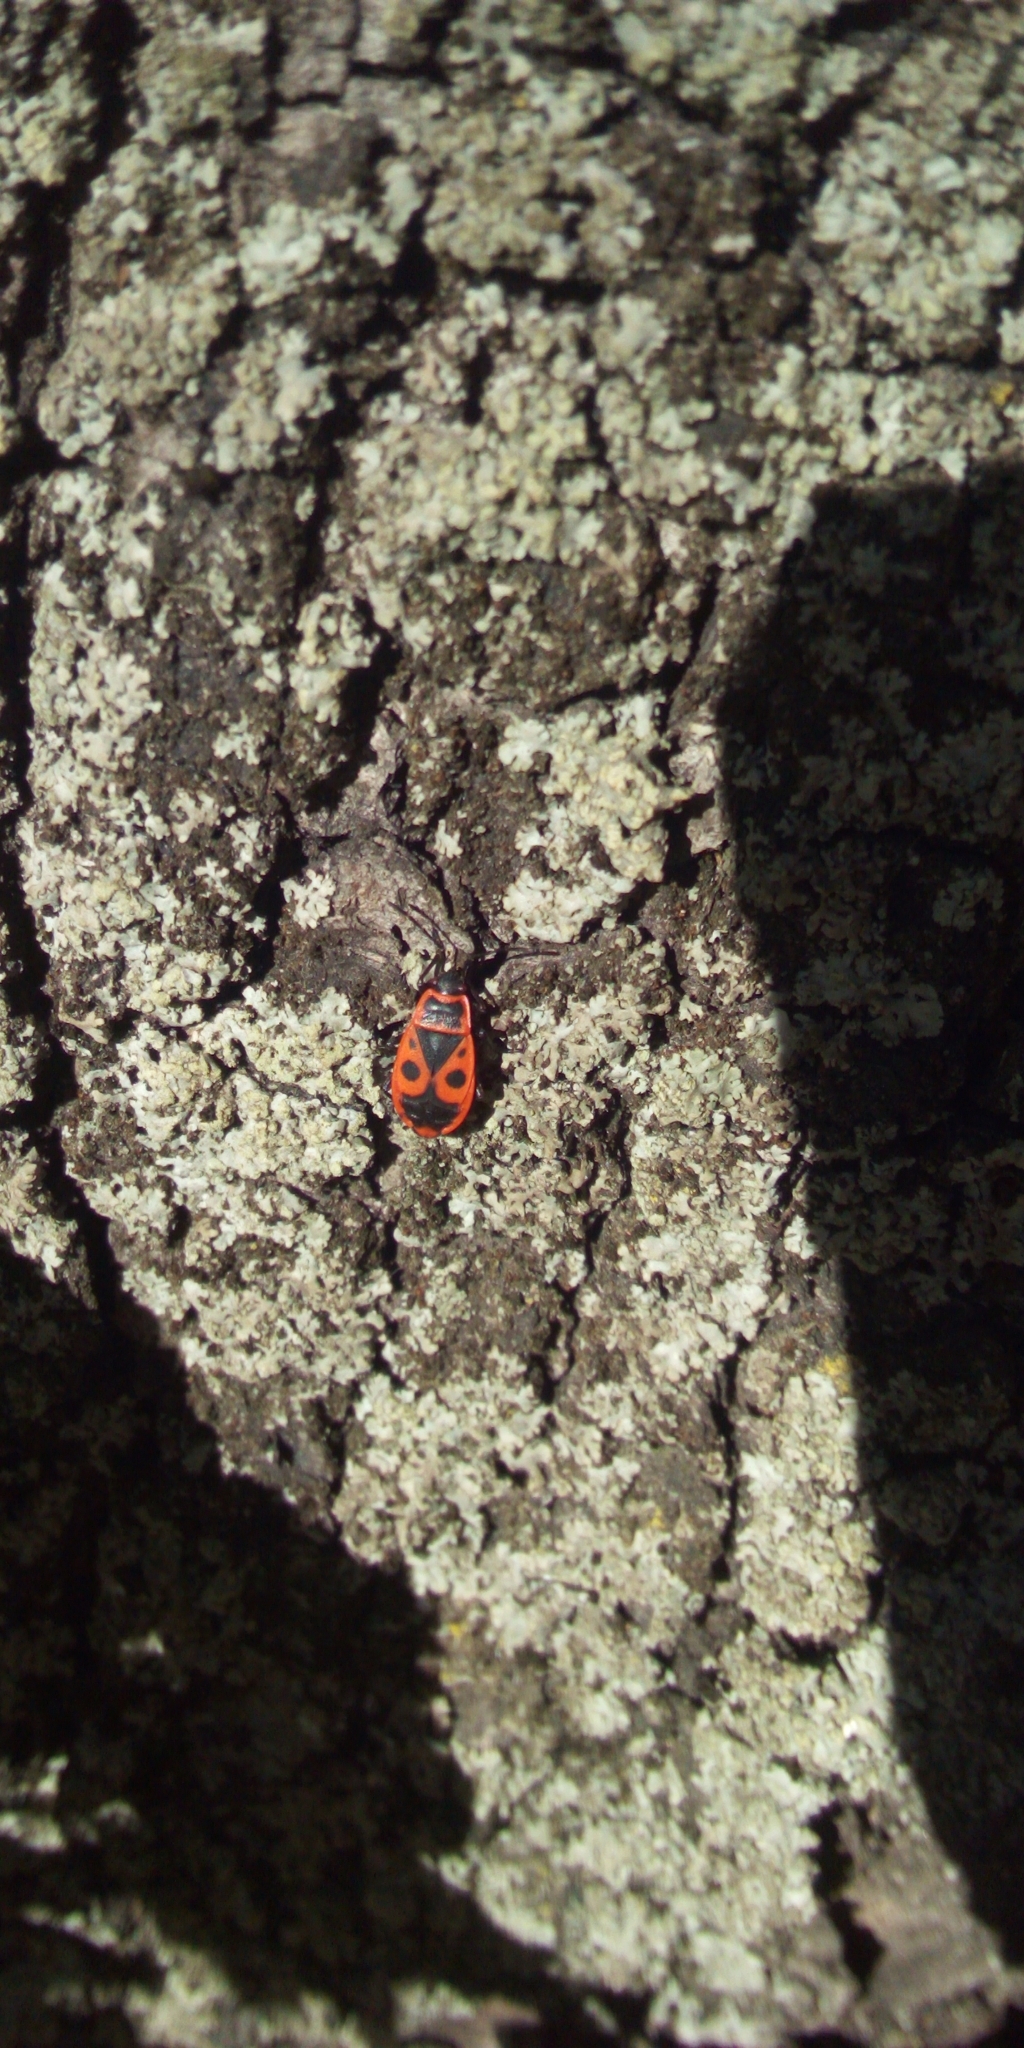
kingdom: Animalia
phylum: Arthropoda
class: Insecta
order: Hemiptera
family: Pyrrhocoridae
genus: Pyrrhocoris
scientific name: Pyrrhocoris apterus
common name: Firebug
